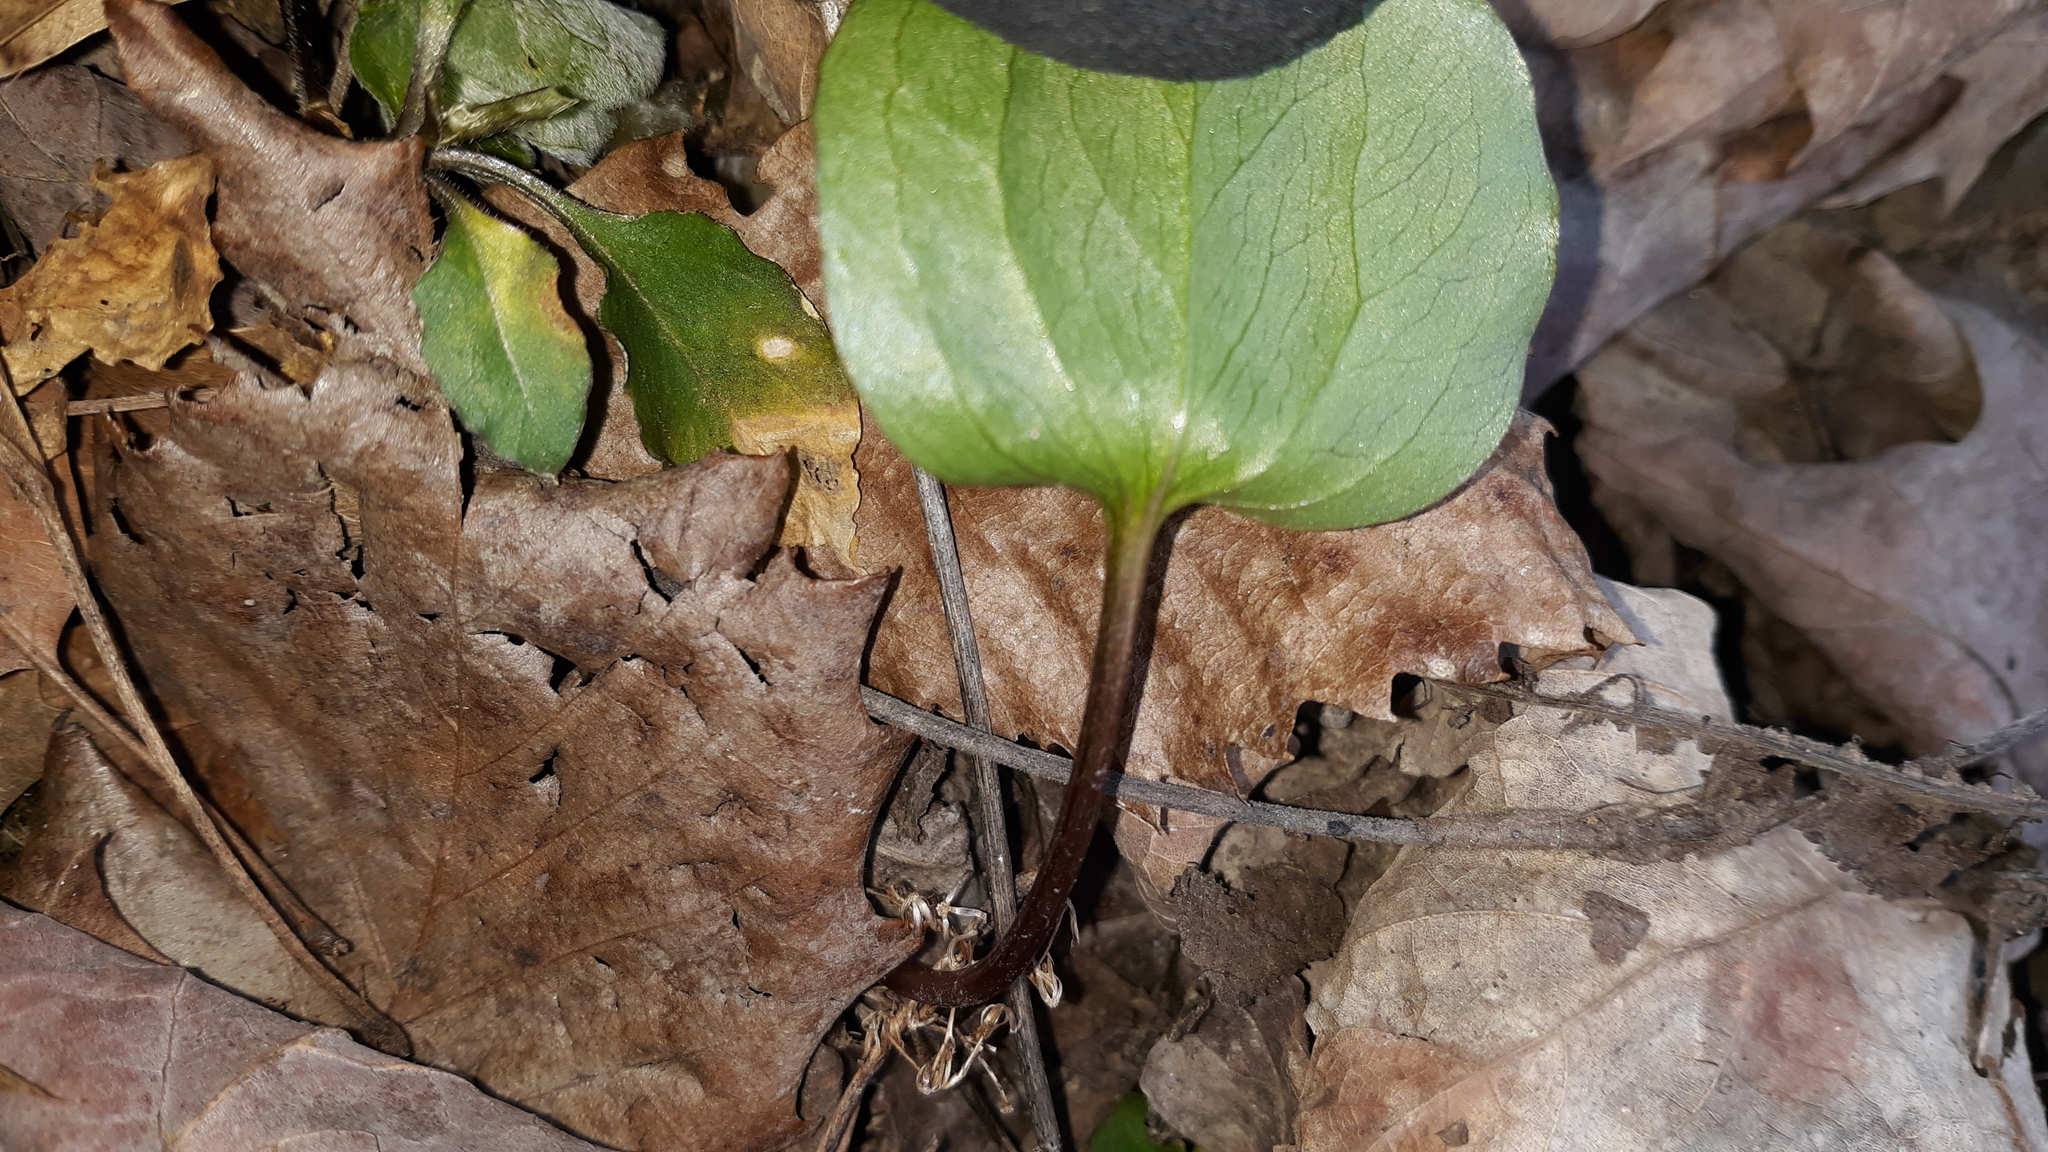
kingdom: Plantae
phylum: Tracheophyta
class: Liliopsida
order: Liliales
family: Melanthiaceae
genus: Trillium
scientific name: Trillium
